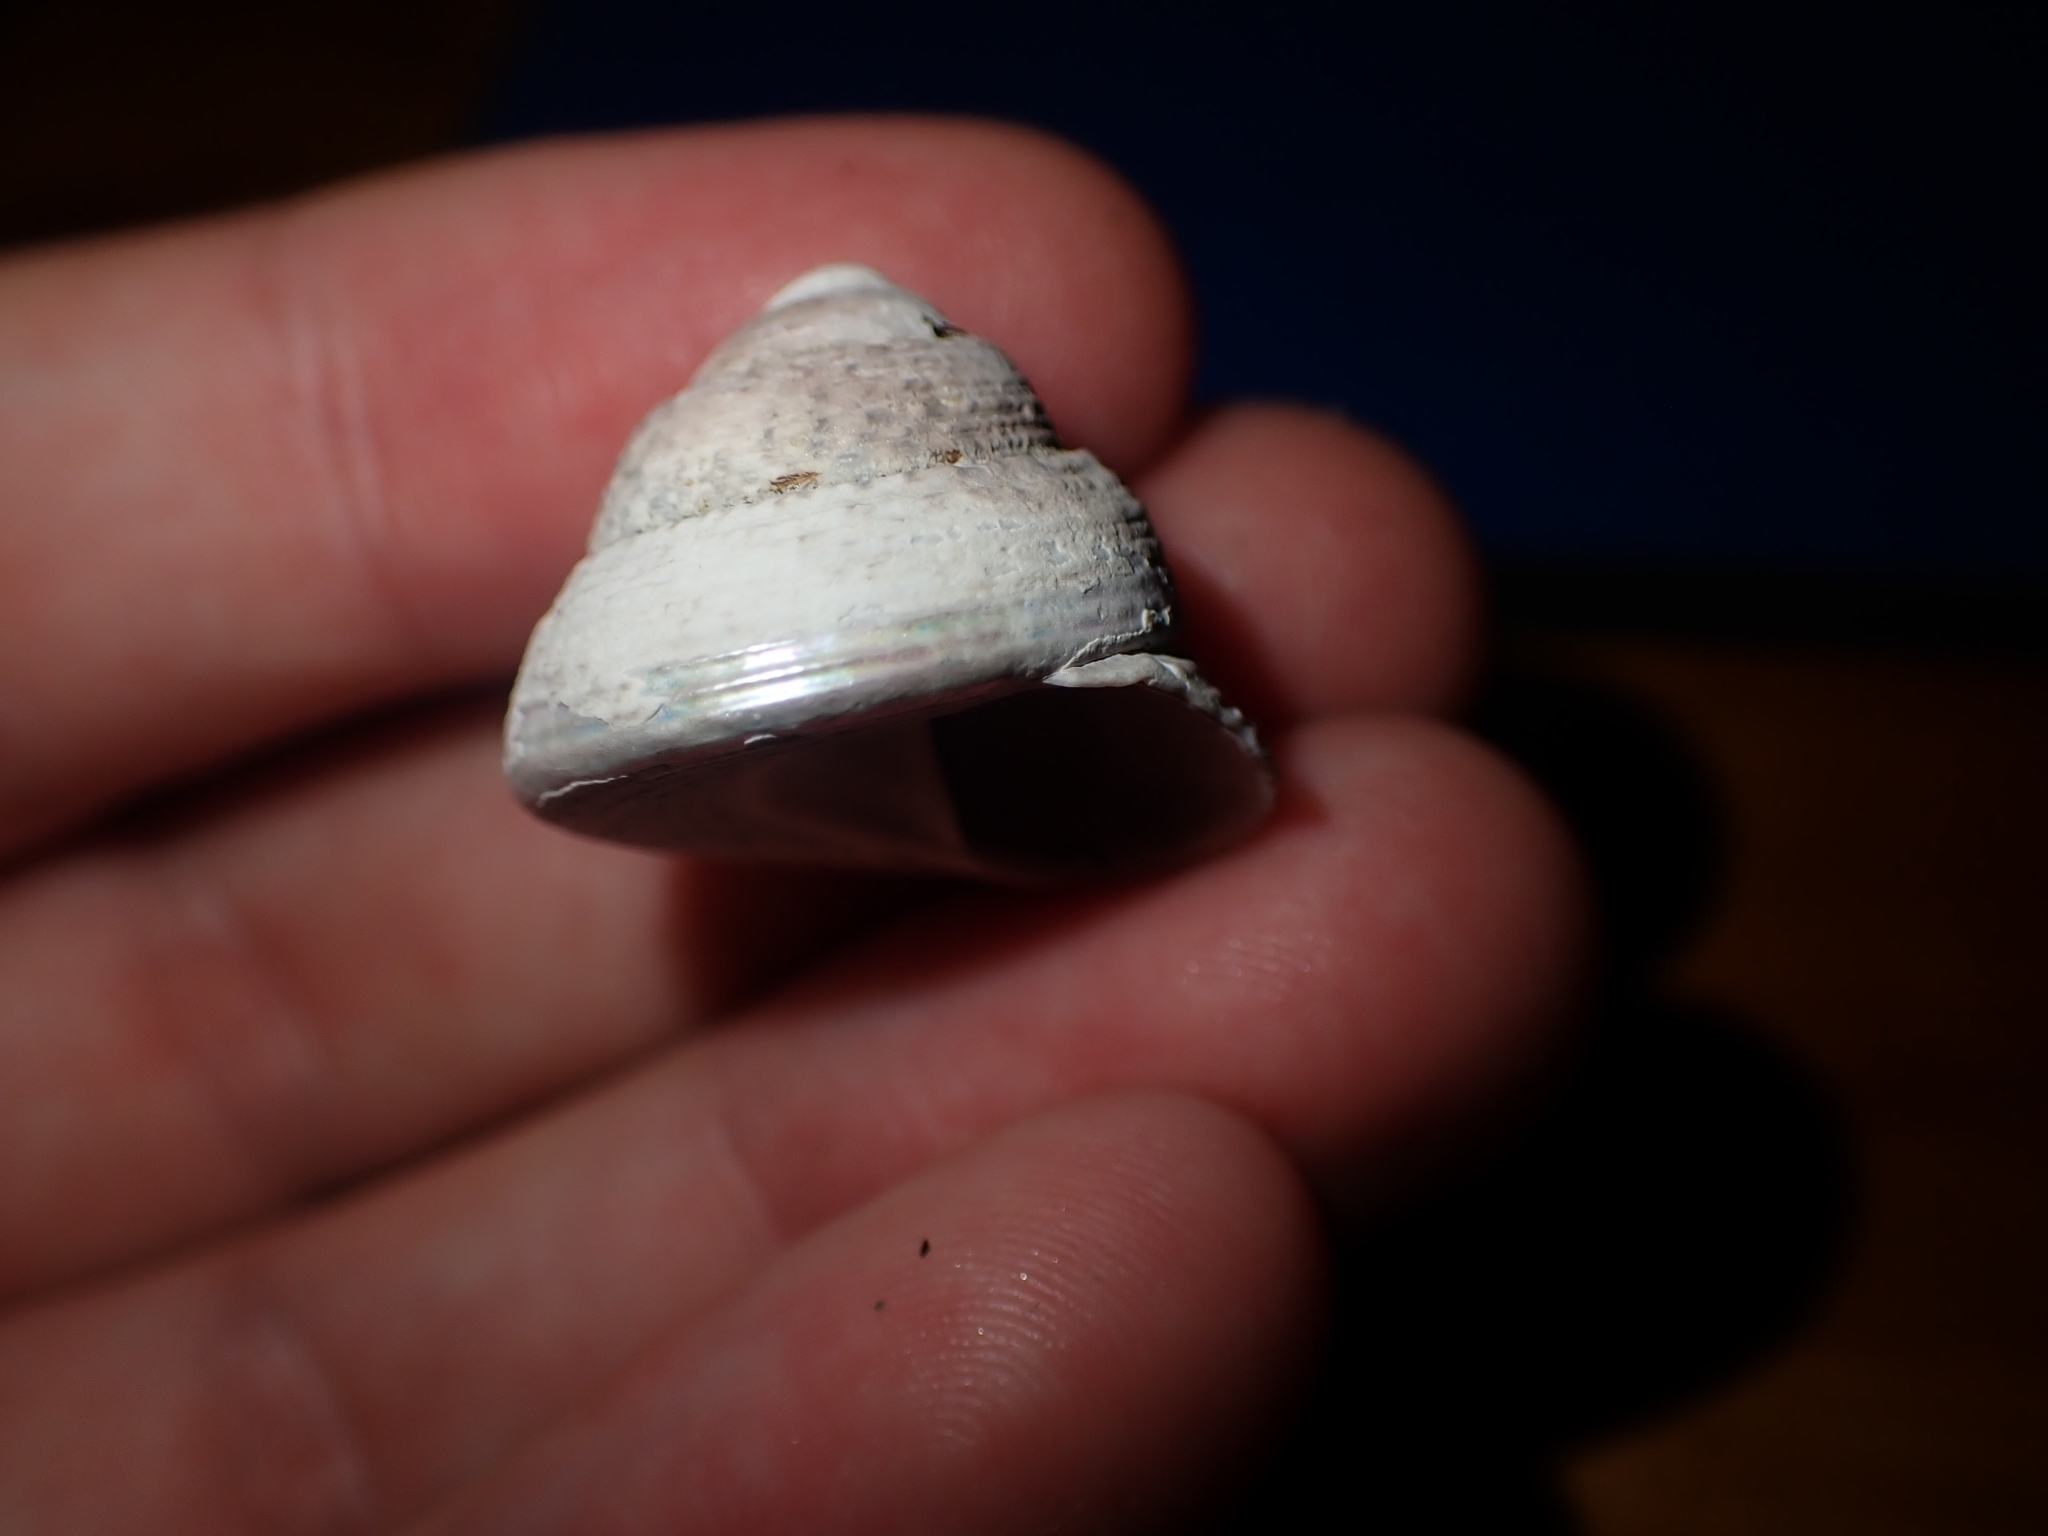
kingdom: Animalia
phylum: Mollusca
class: Gastropoda
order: Trochida
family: Trochidae
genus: Coelotrochus
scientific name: Coelotrochus tiaratus
